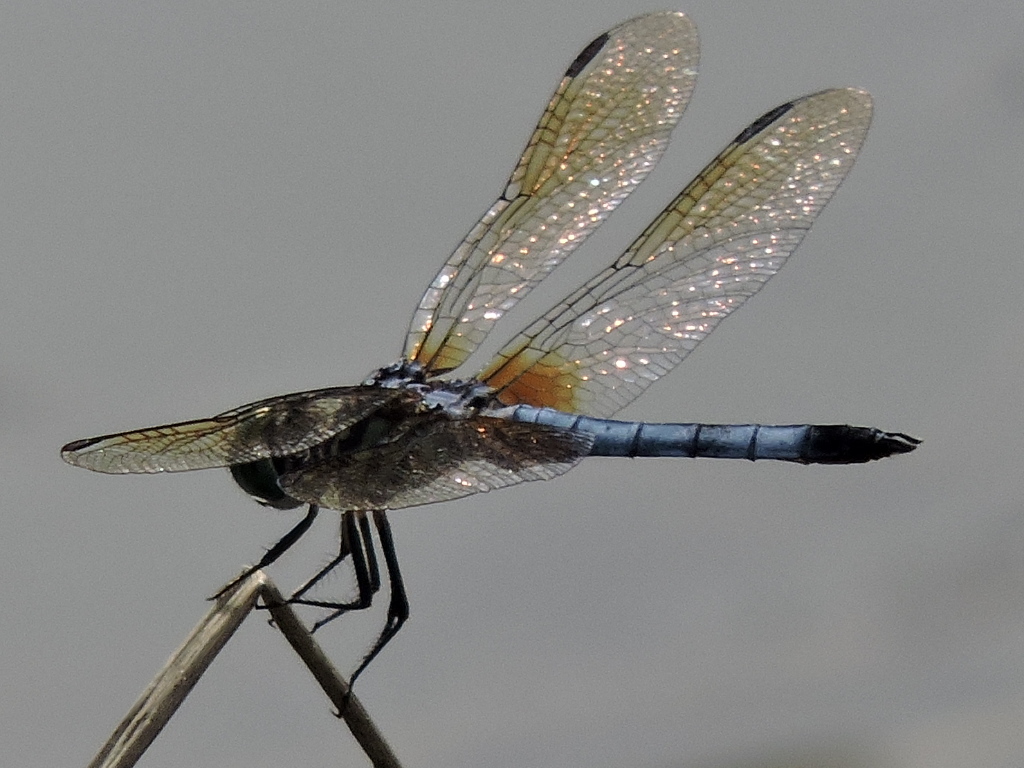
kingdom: Animalia
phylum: Arthropoda
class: Insecta
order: Odonata
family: Libellulidae
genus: Pachydiplax
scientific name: Pachydiplax longipennis
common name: Blue dasher
